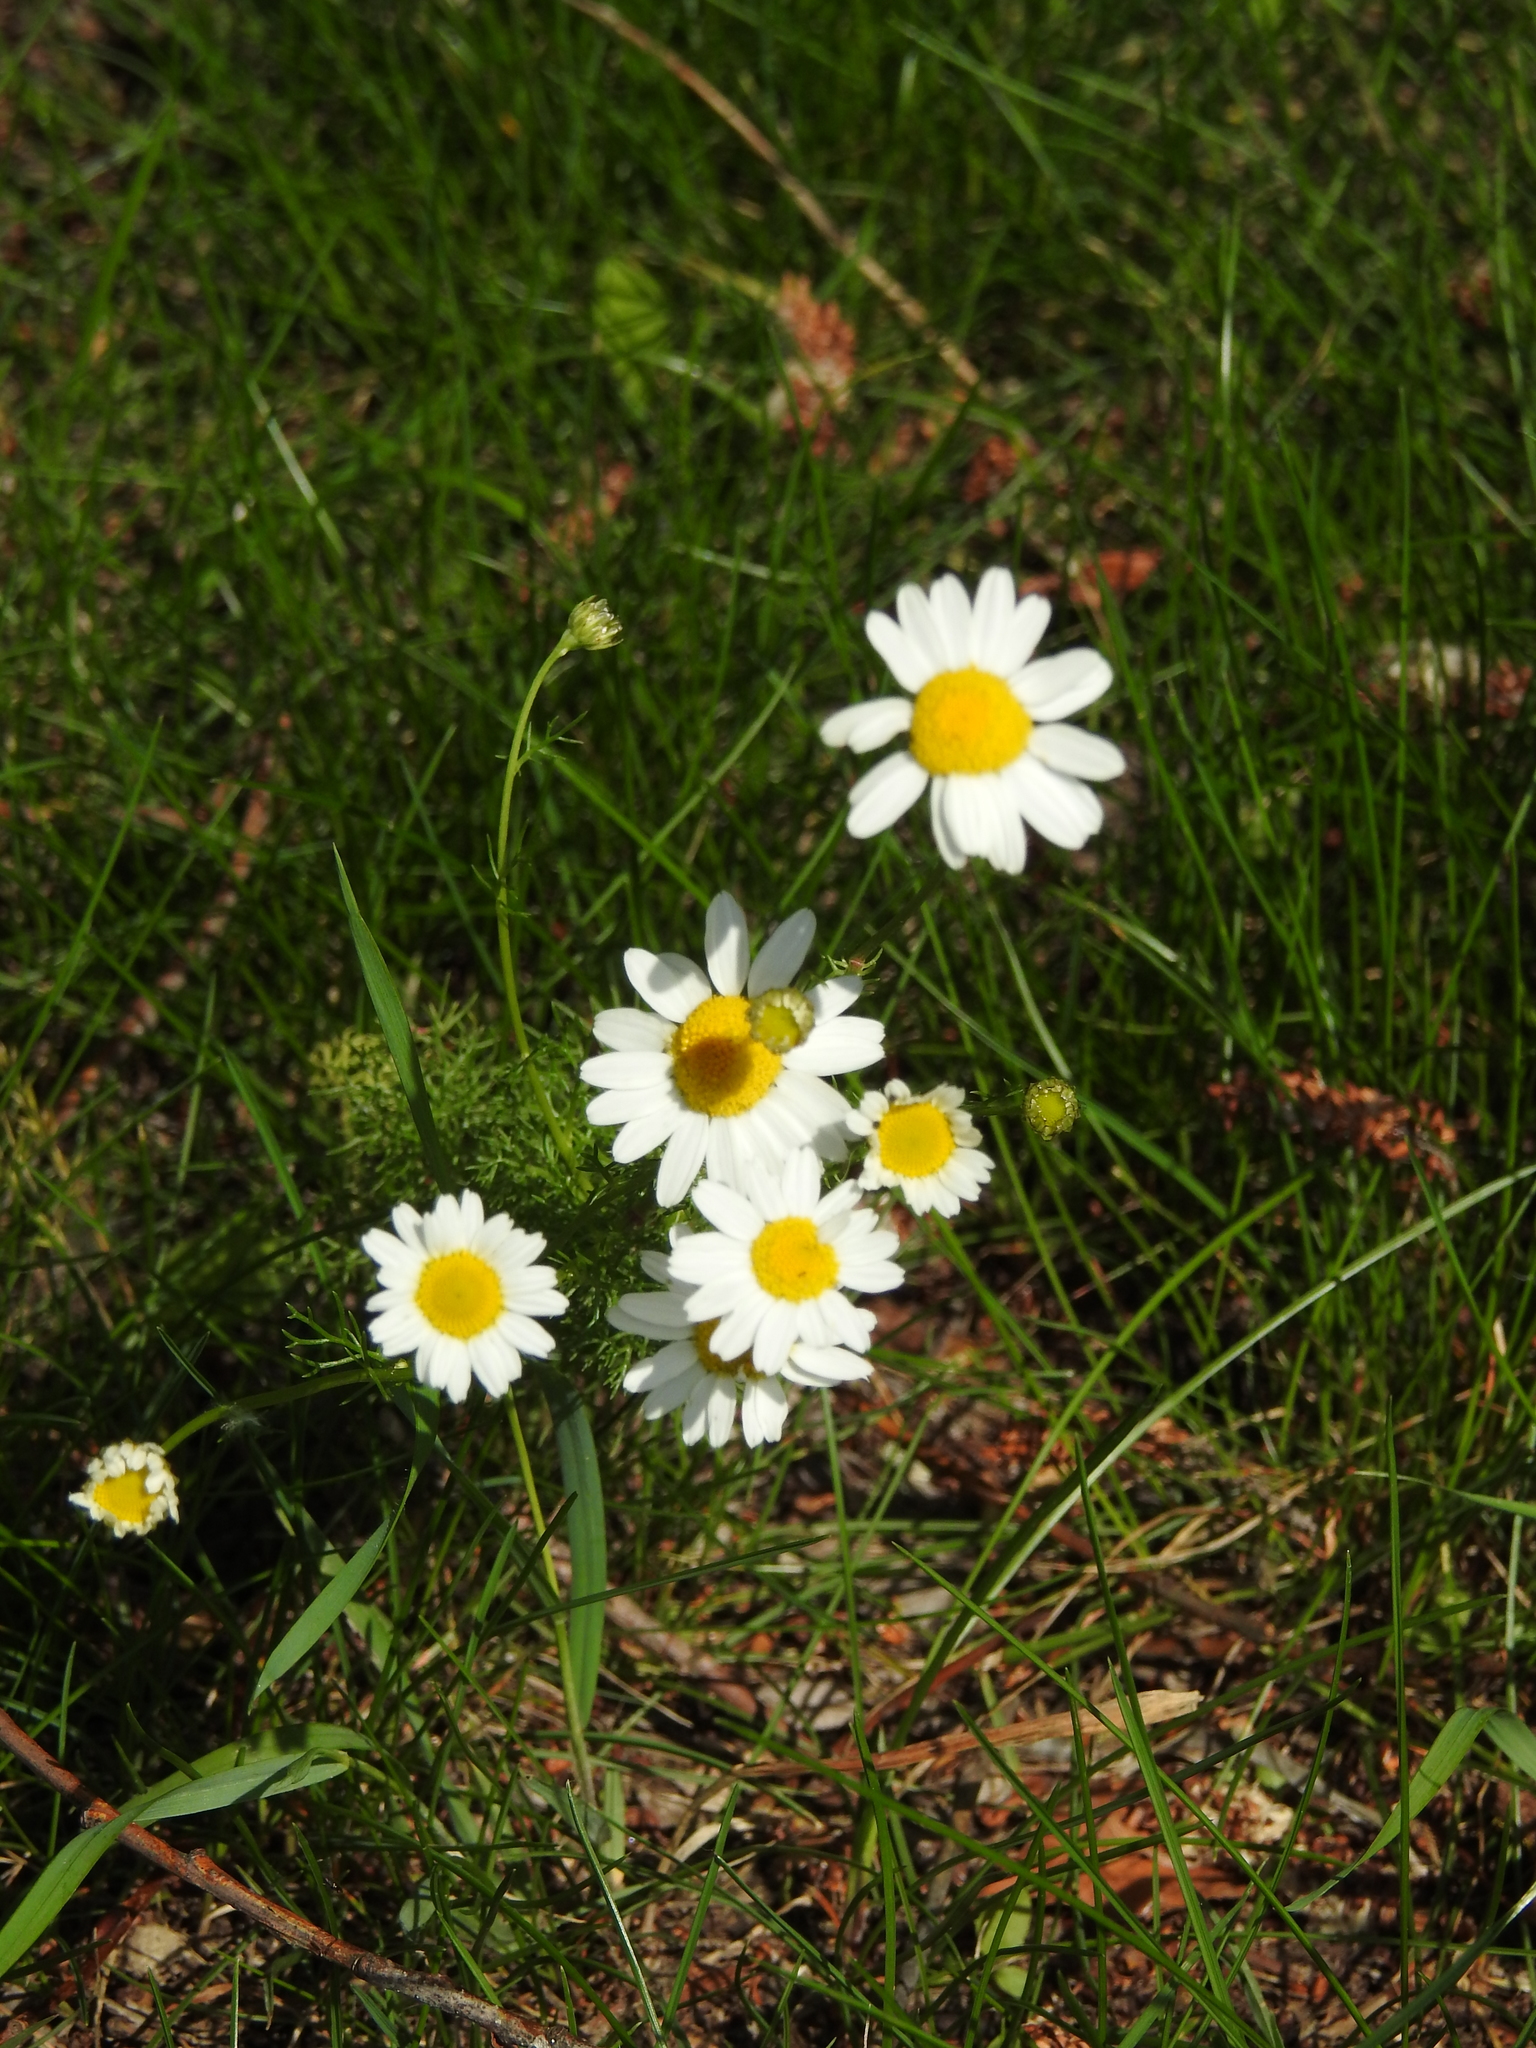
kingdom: Plantae
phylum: Tracheophyta
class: Magnoliopsida
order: Asterales
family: Asteraceae
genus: Tripleurospermum
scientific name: Tripleurospermum inodorum
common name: Scentless mayweed
